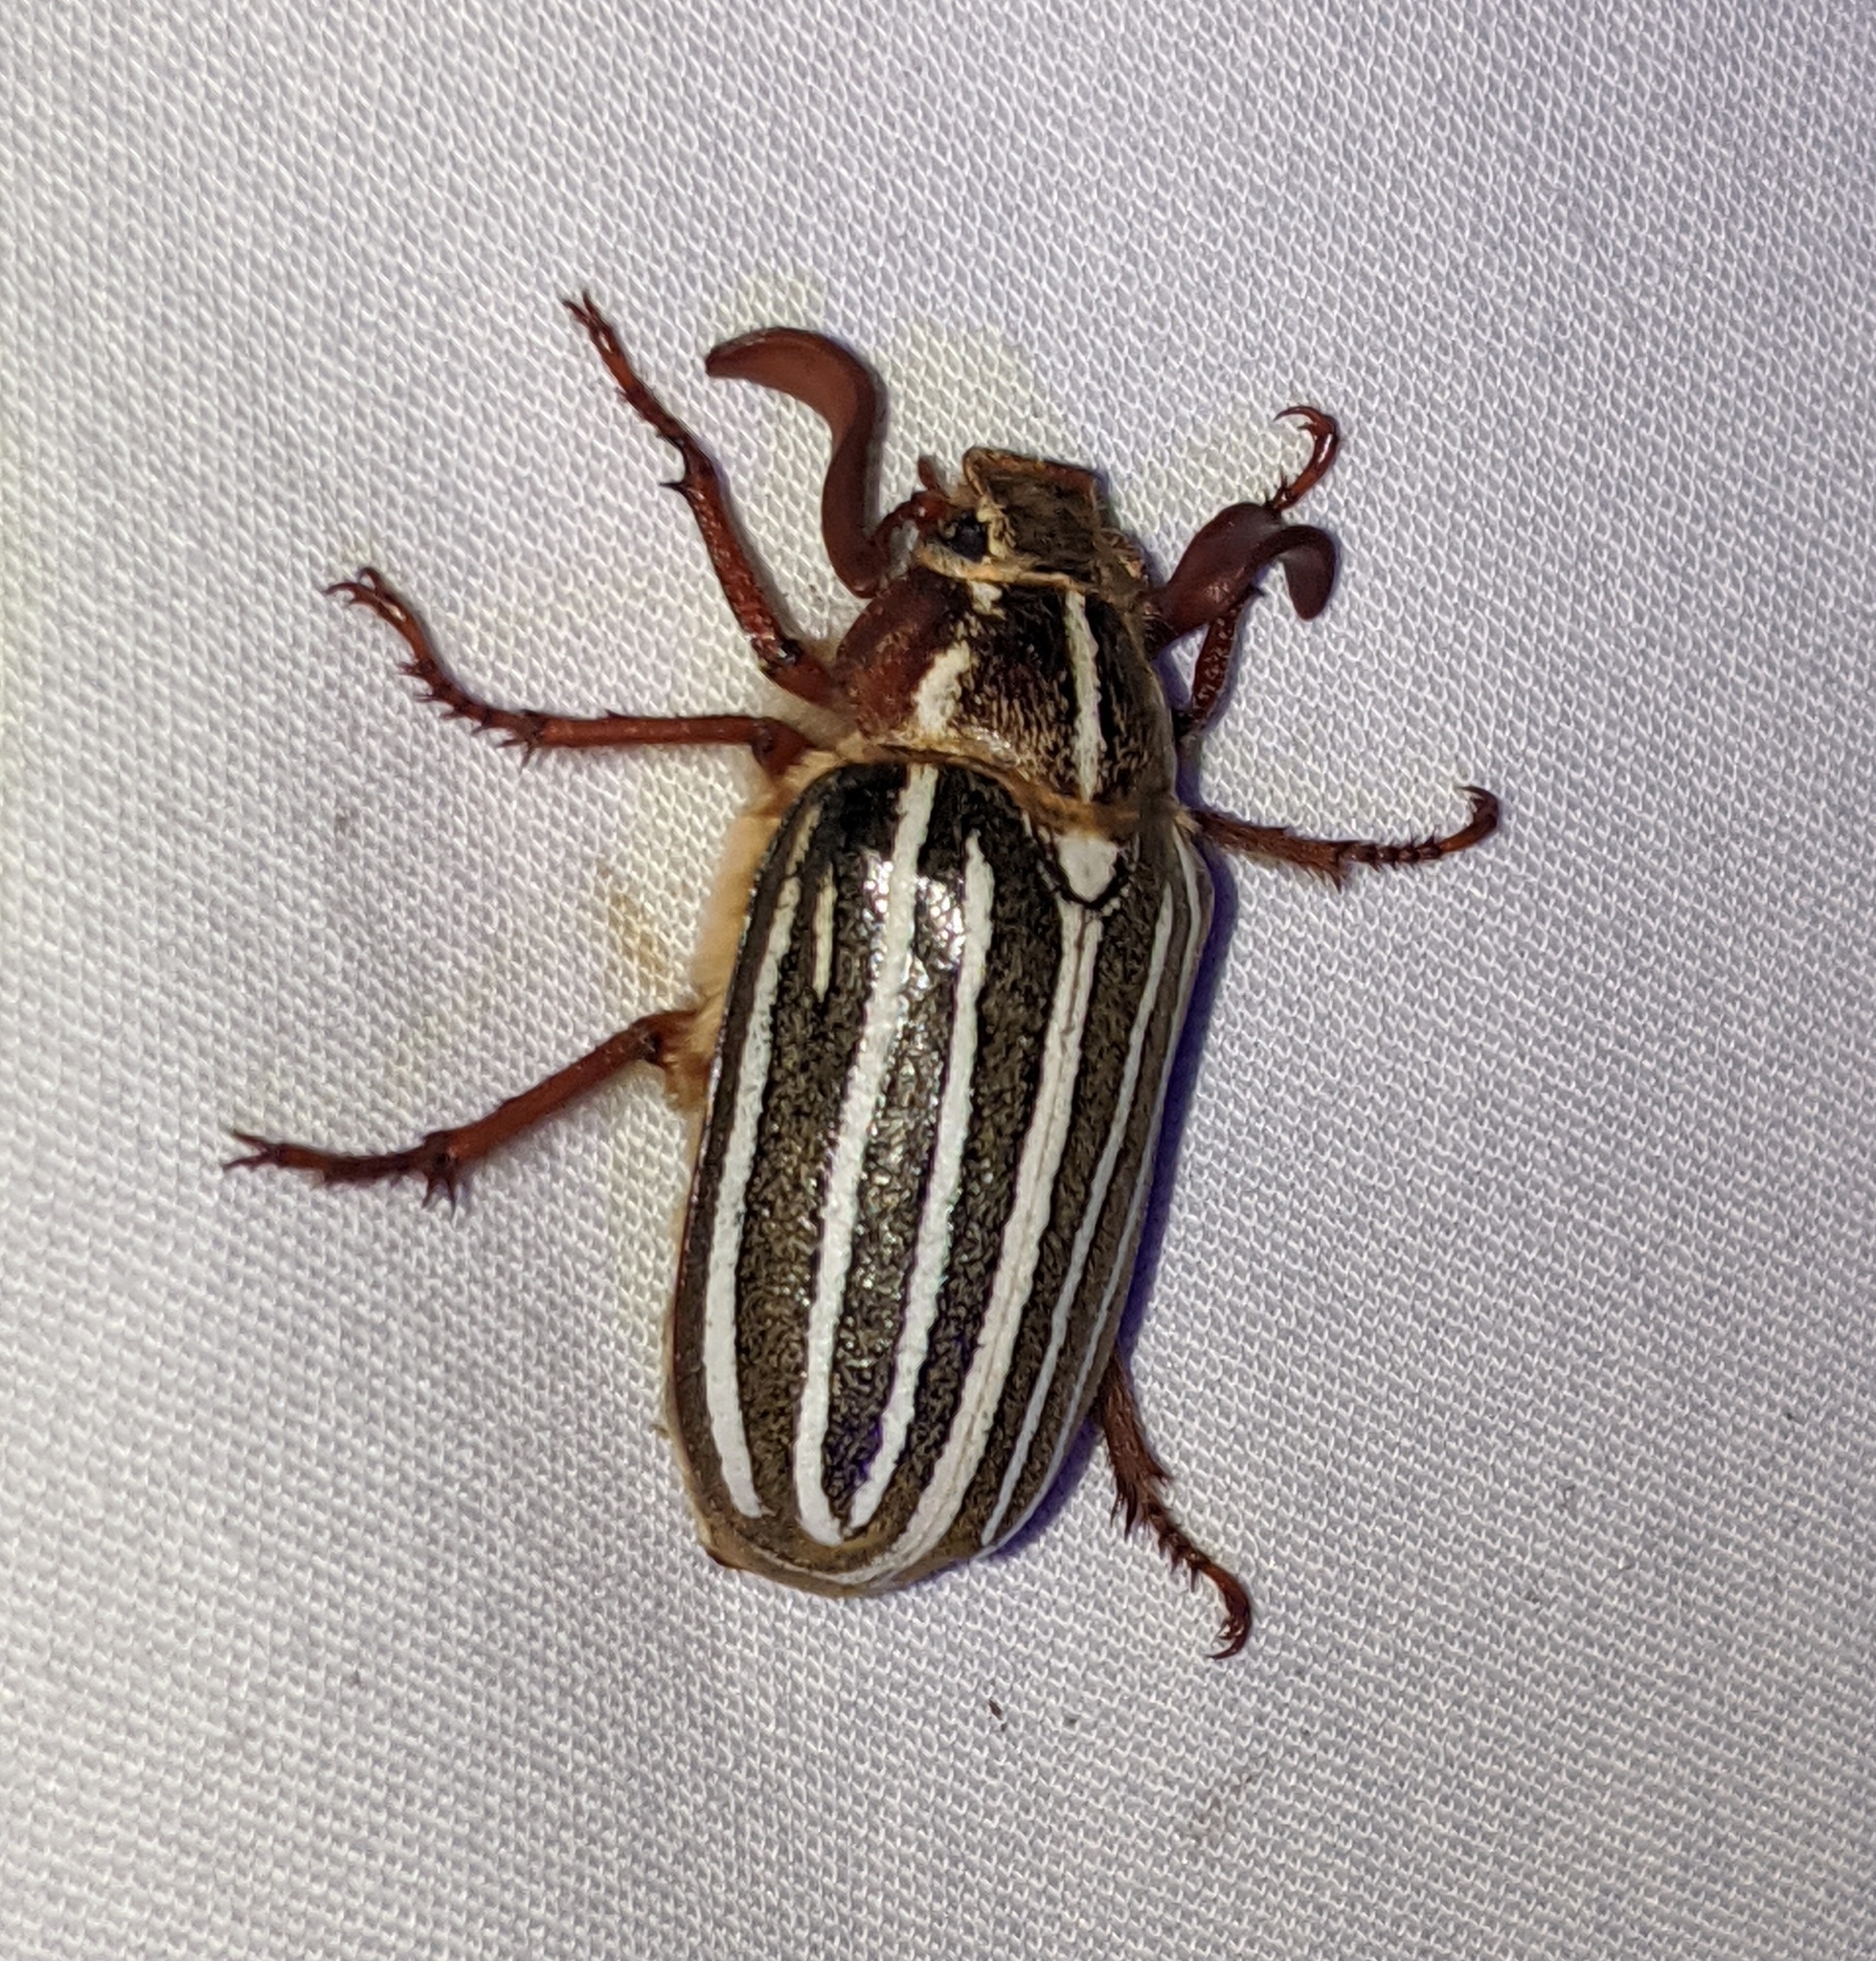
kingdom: Animalia
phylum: Arthropoda
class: Insecta
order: Coleoptera
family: Scarabaeidae
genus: Polyphylla
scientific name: Polyphylla crinita
